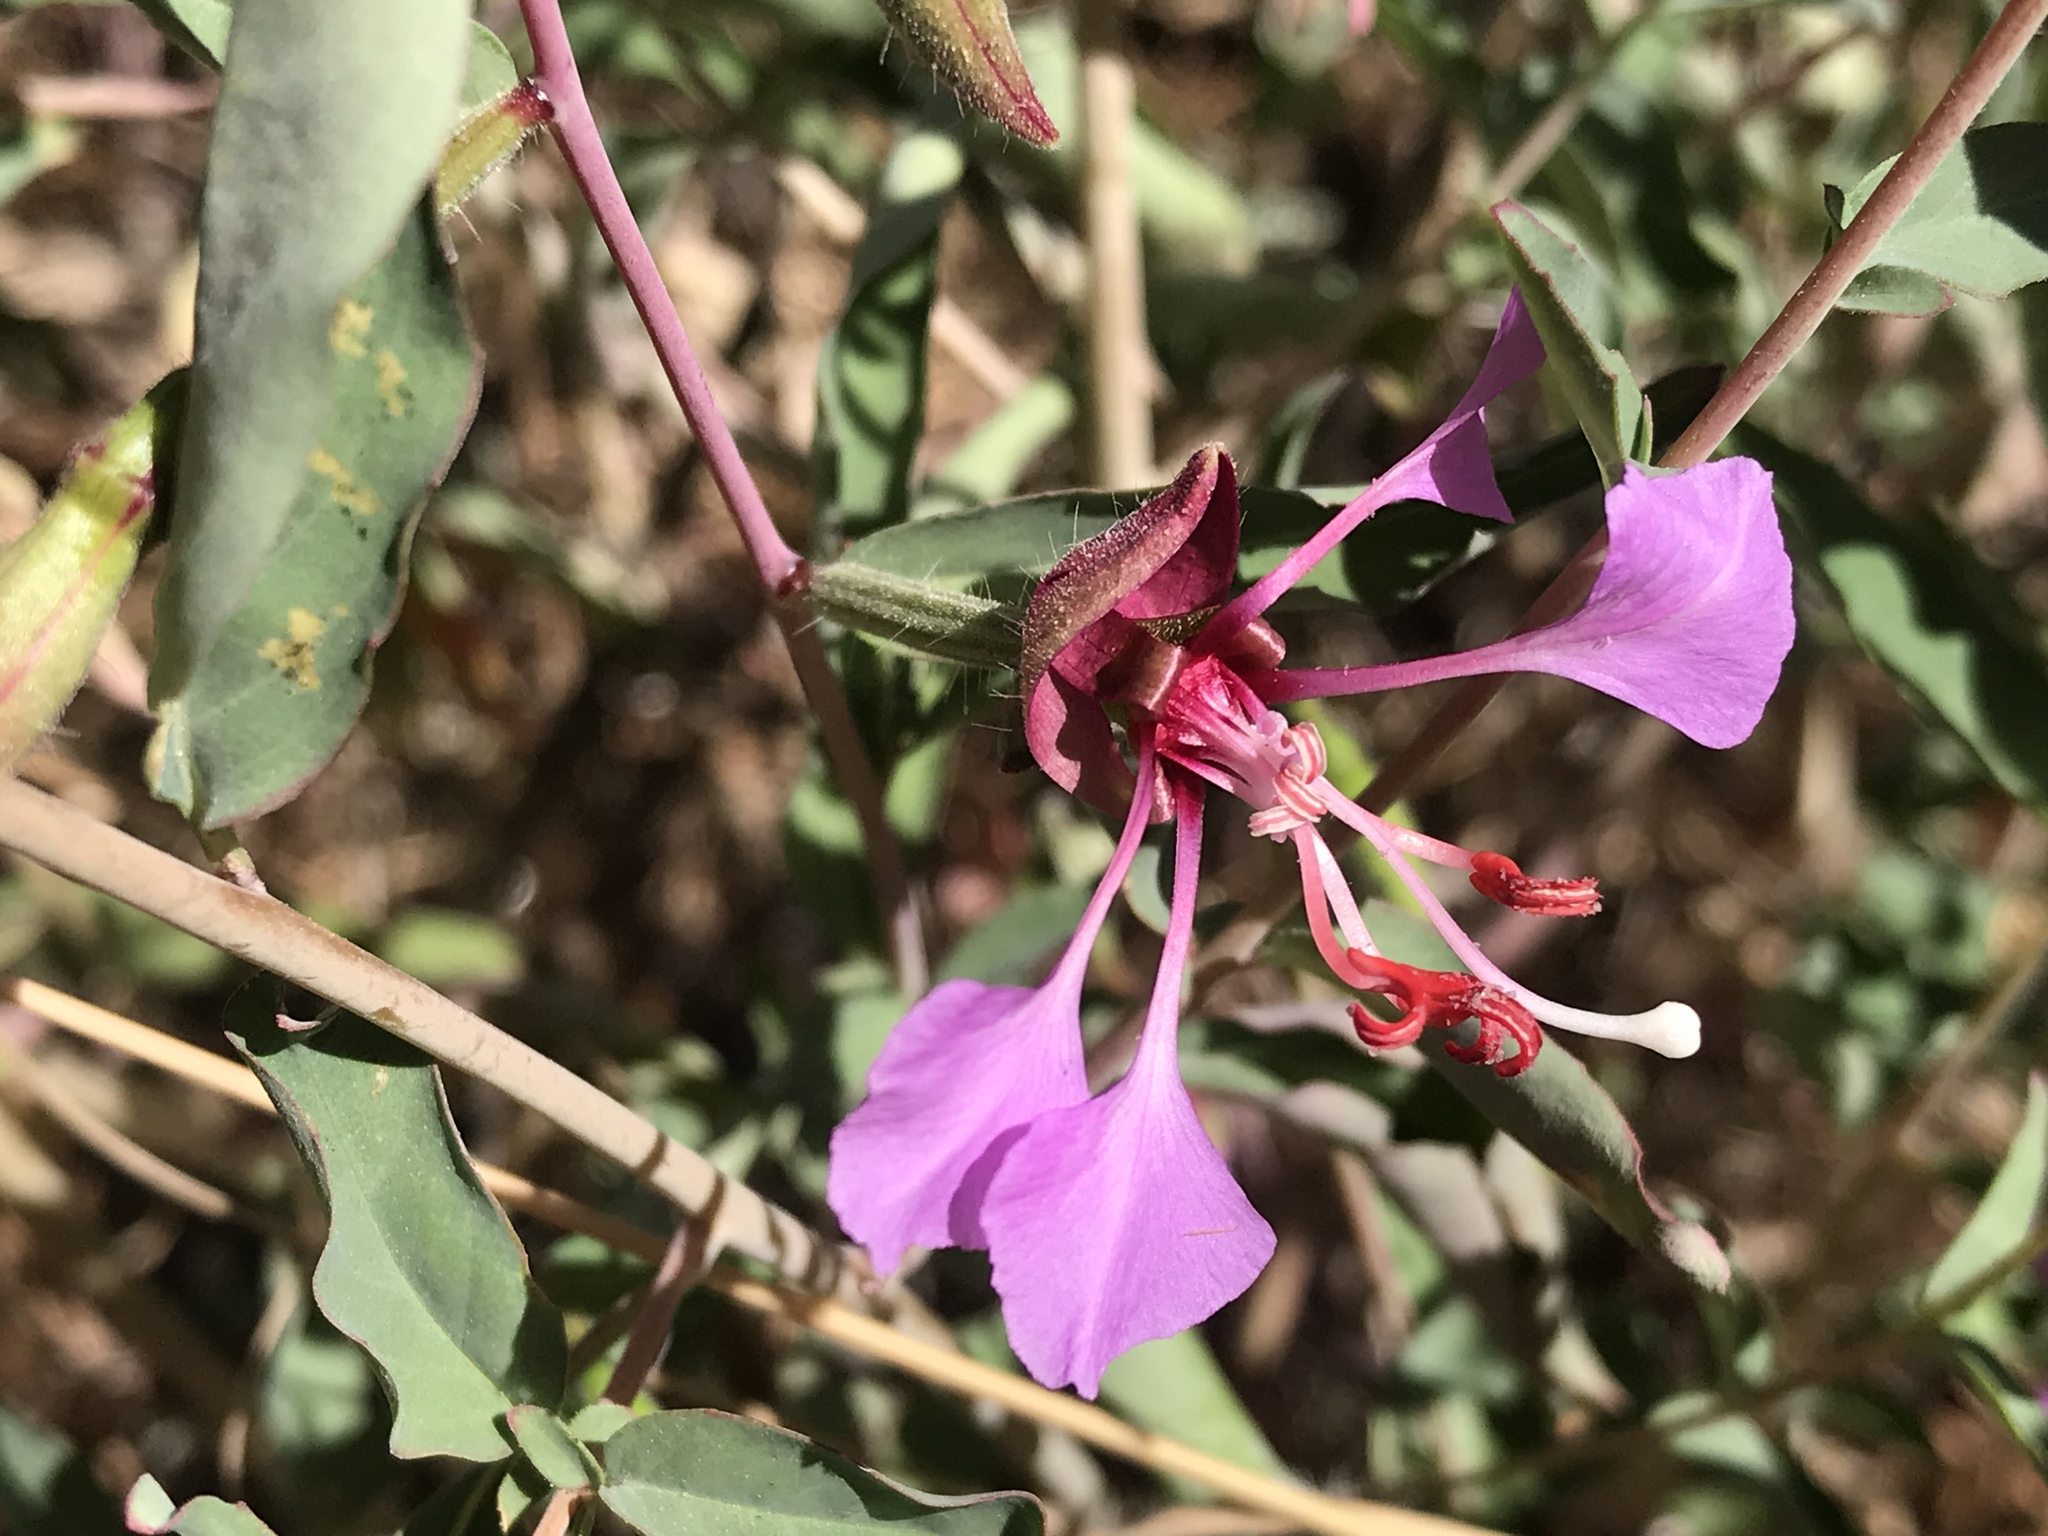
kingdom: Plantae
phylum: Tracheophyta
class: Magnoliopsida
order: Myrtales
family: Onagraceae
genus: Clarkia
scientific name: Clarkia unguiculata
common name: Clarkia
